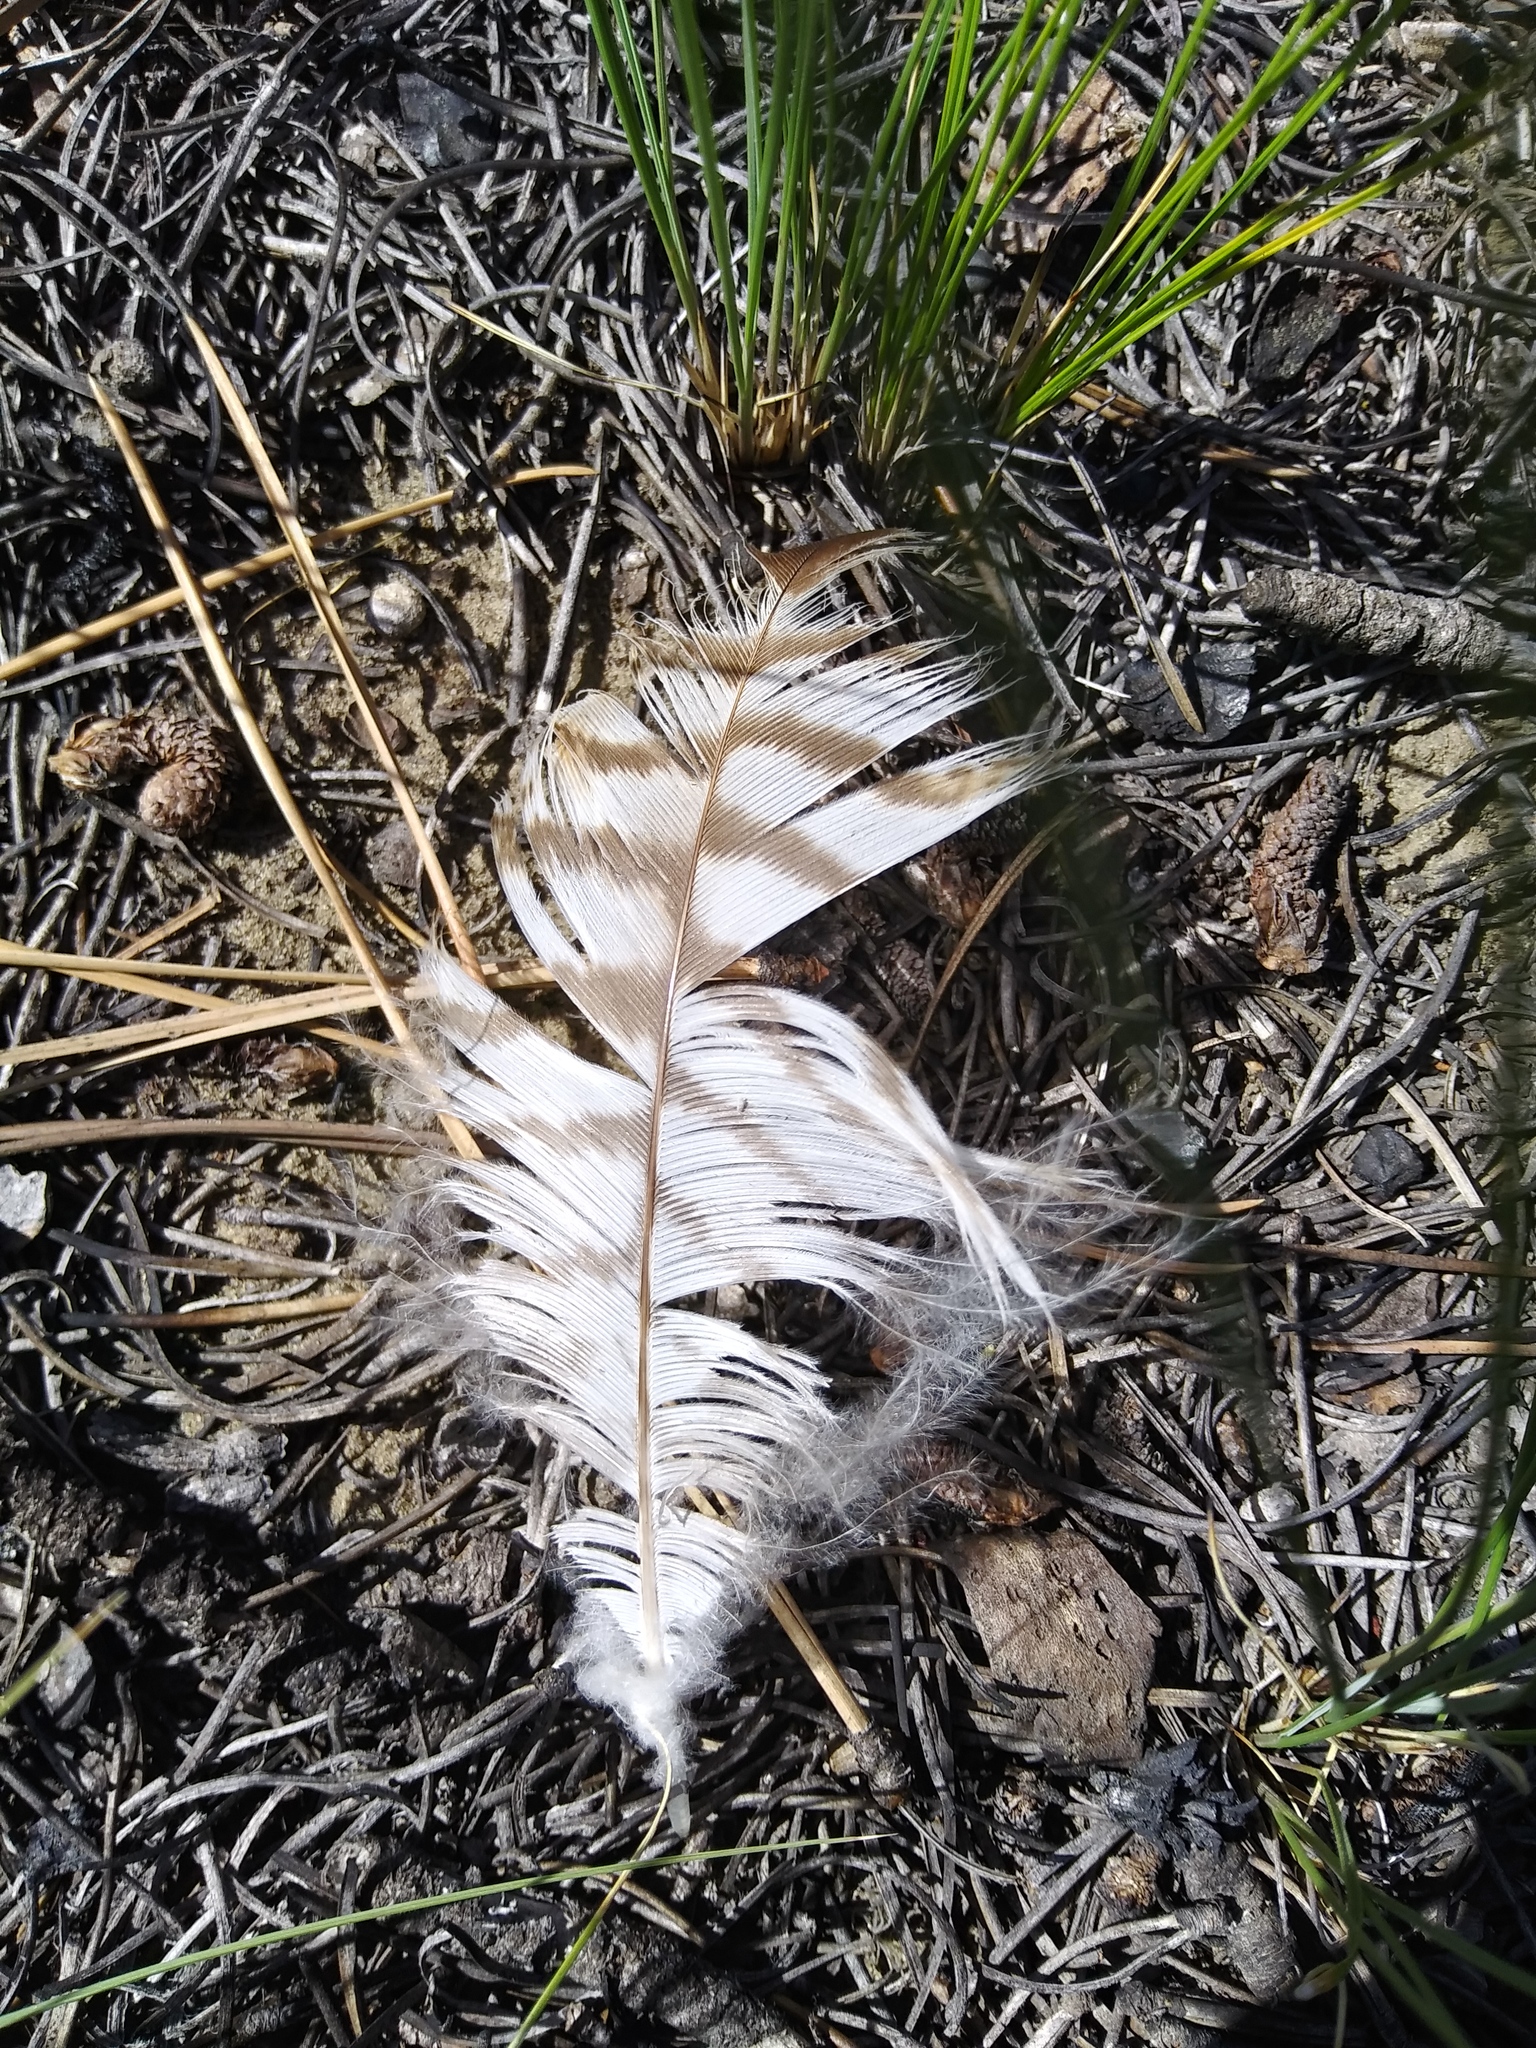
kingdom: Animalia
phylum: Chordata
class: Aves
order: Accipitriformes
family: Accipitridae
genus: Buteo
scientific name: Buteo jamaicensis
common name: Red-tailed hawk
